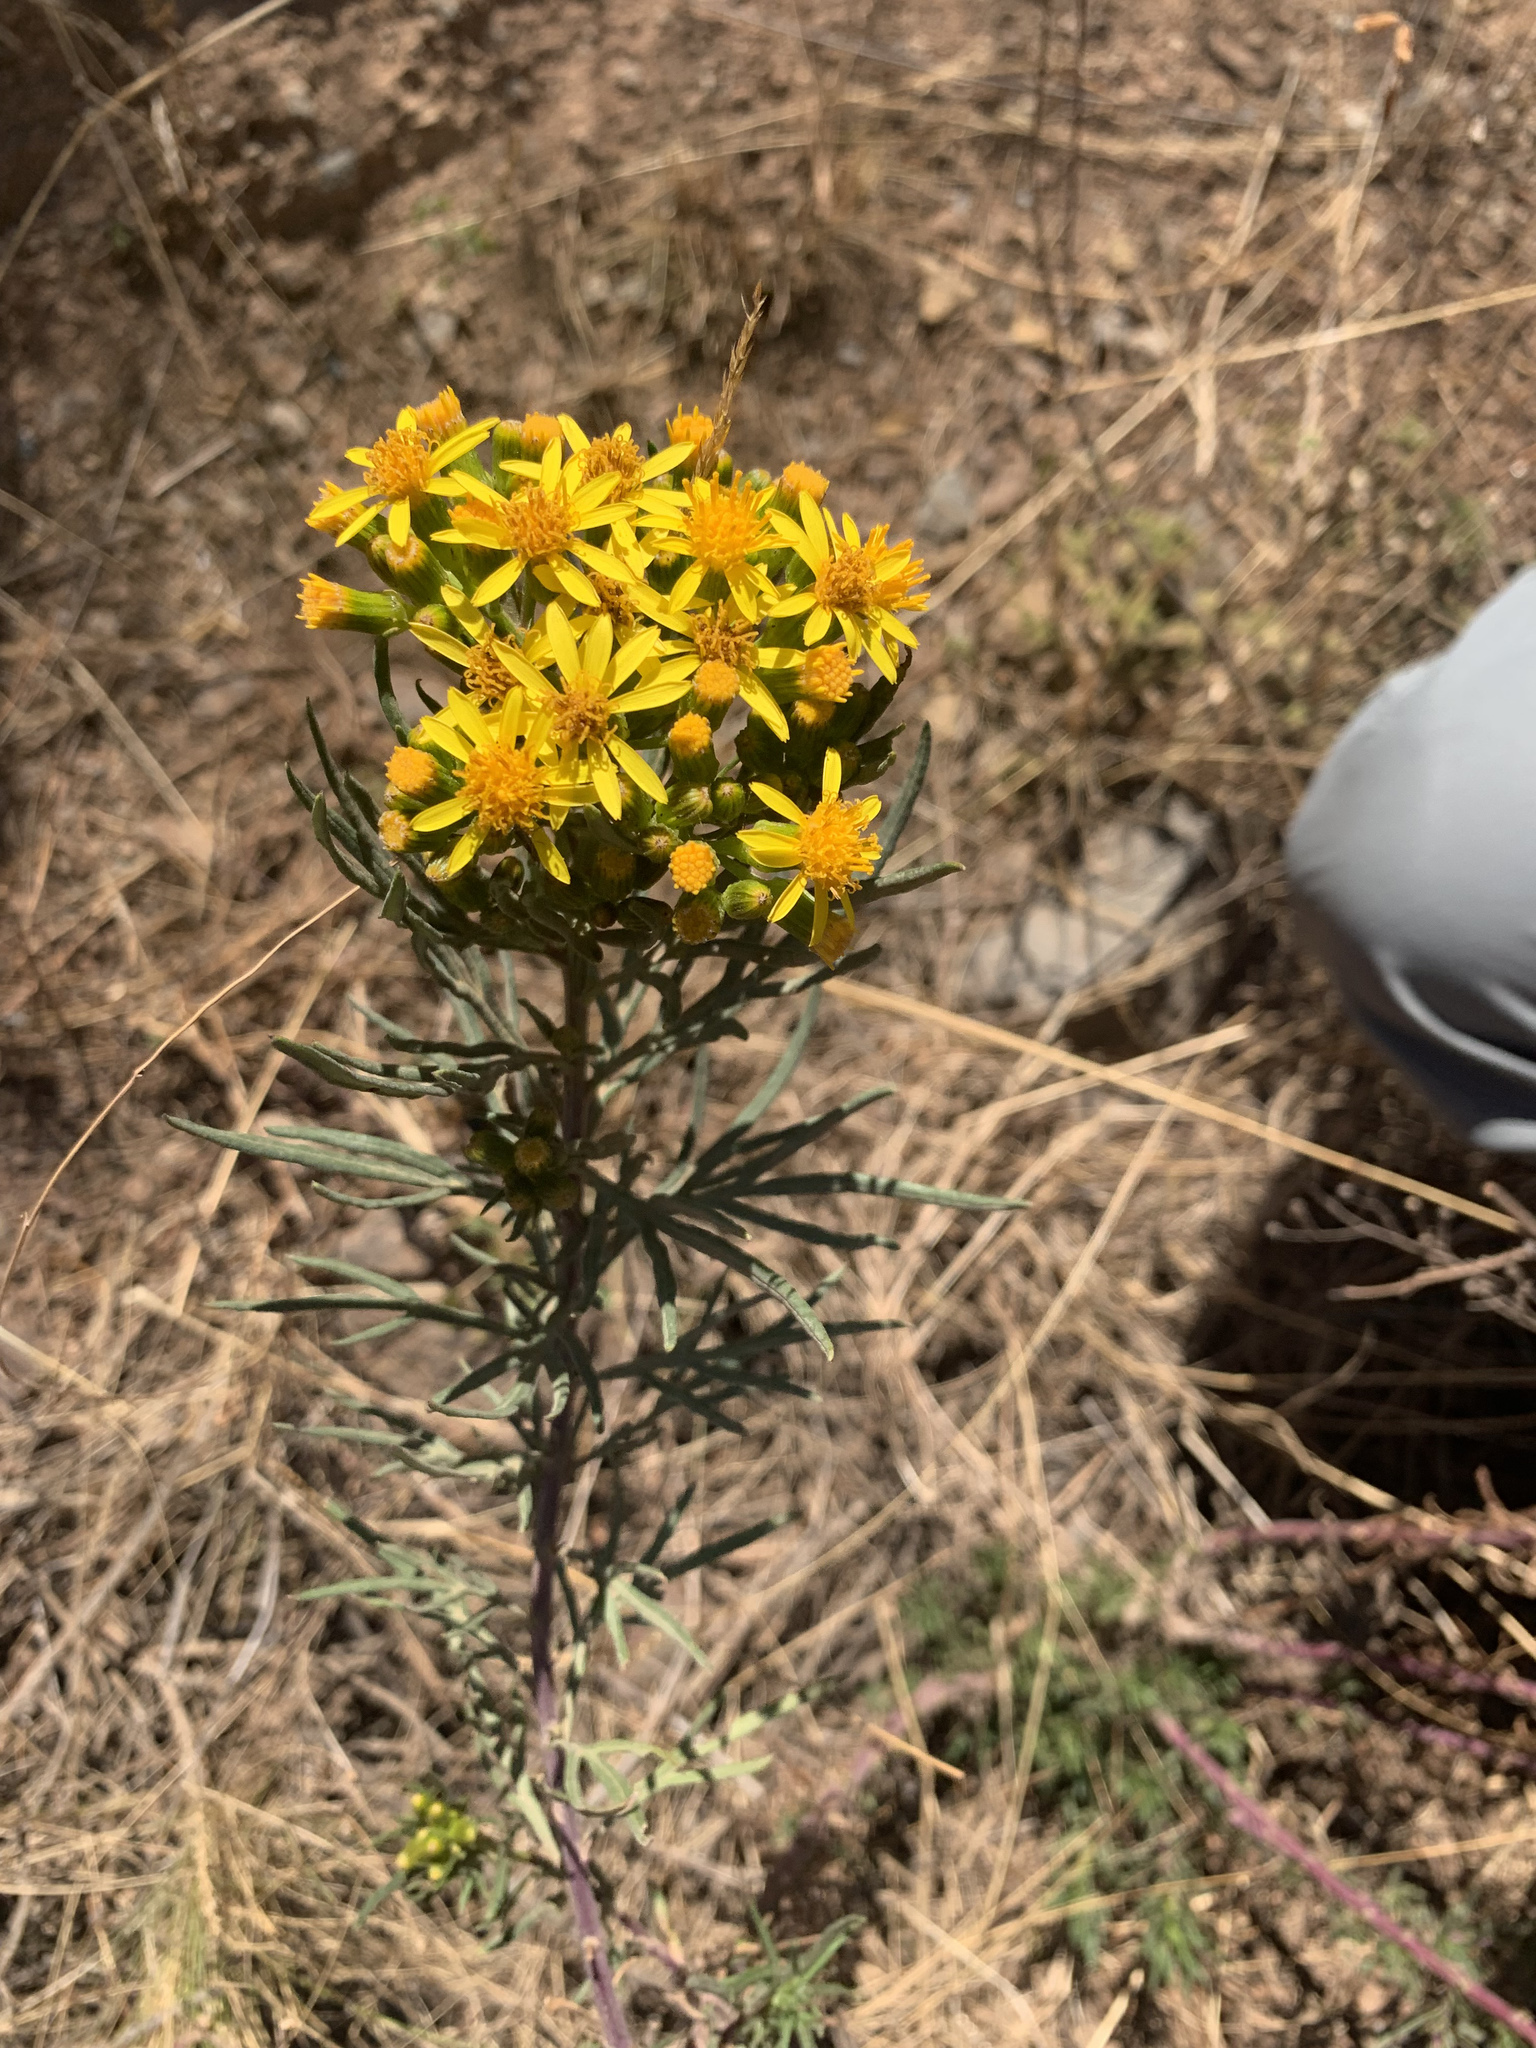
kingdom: Plantae
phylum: Tracheophyta
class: Magnoliopsida
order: Asterales
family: Asteraceae
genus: Senecio
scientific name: Senecio rudbeckiifolius
